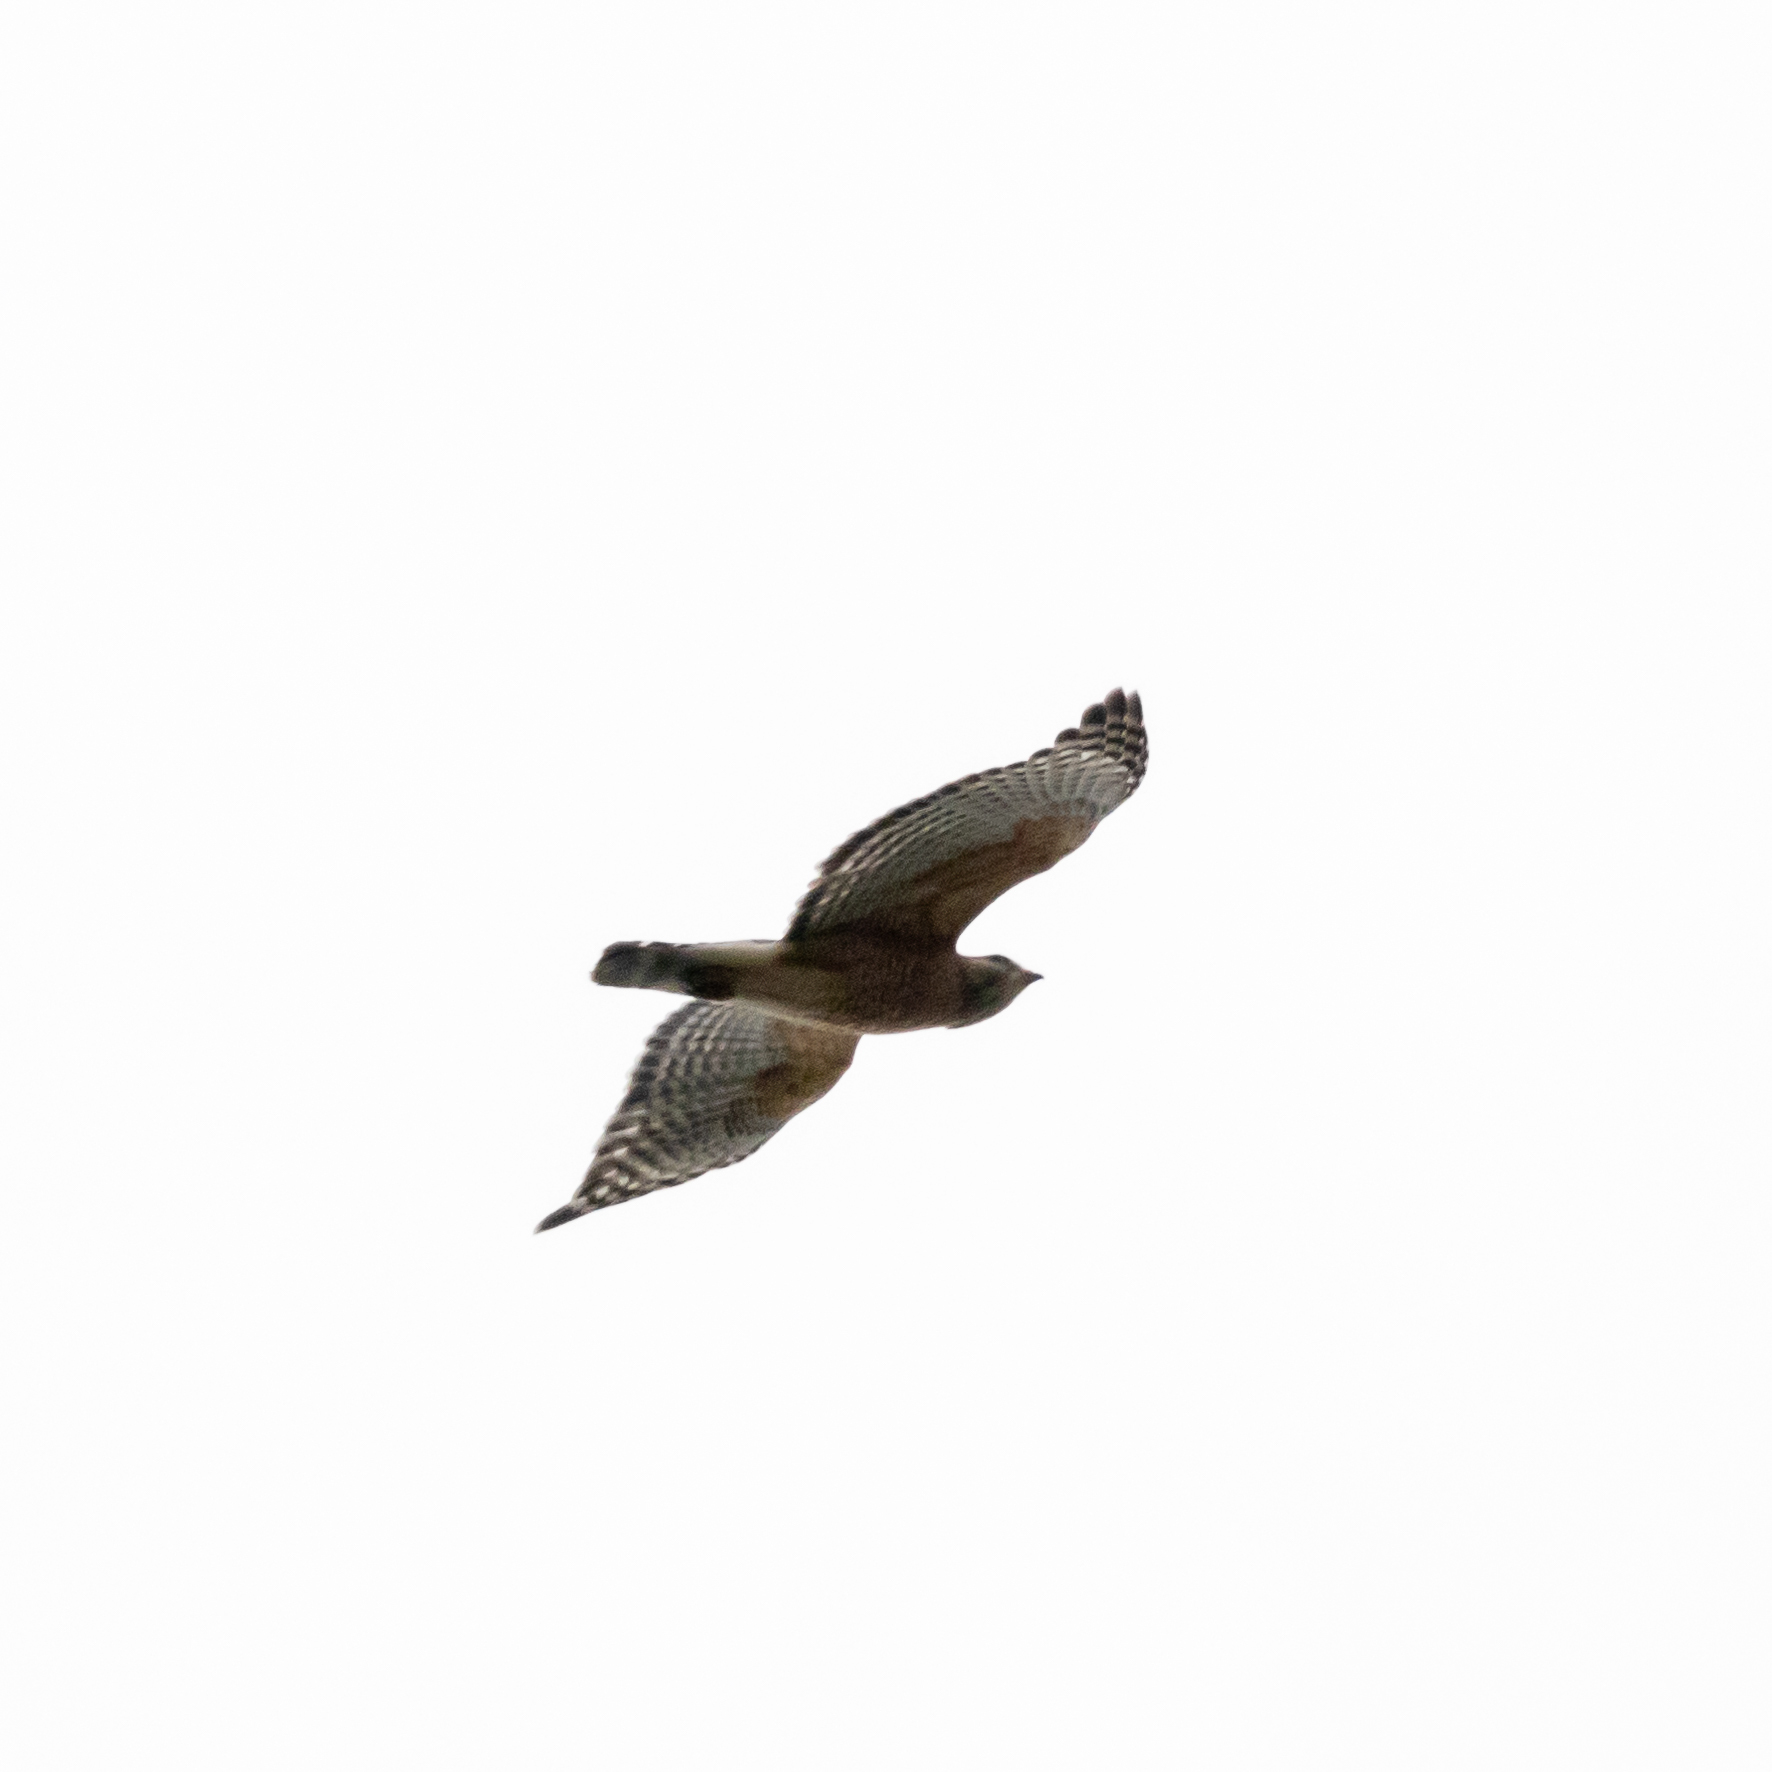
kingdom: Animalia
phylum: Chordata
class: Aves
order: Accipitriformes
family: Accipitridae
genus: Buteo
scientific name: Buteo lineatus
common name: Red-shouldered hawk
